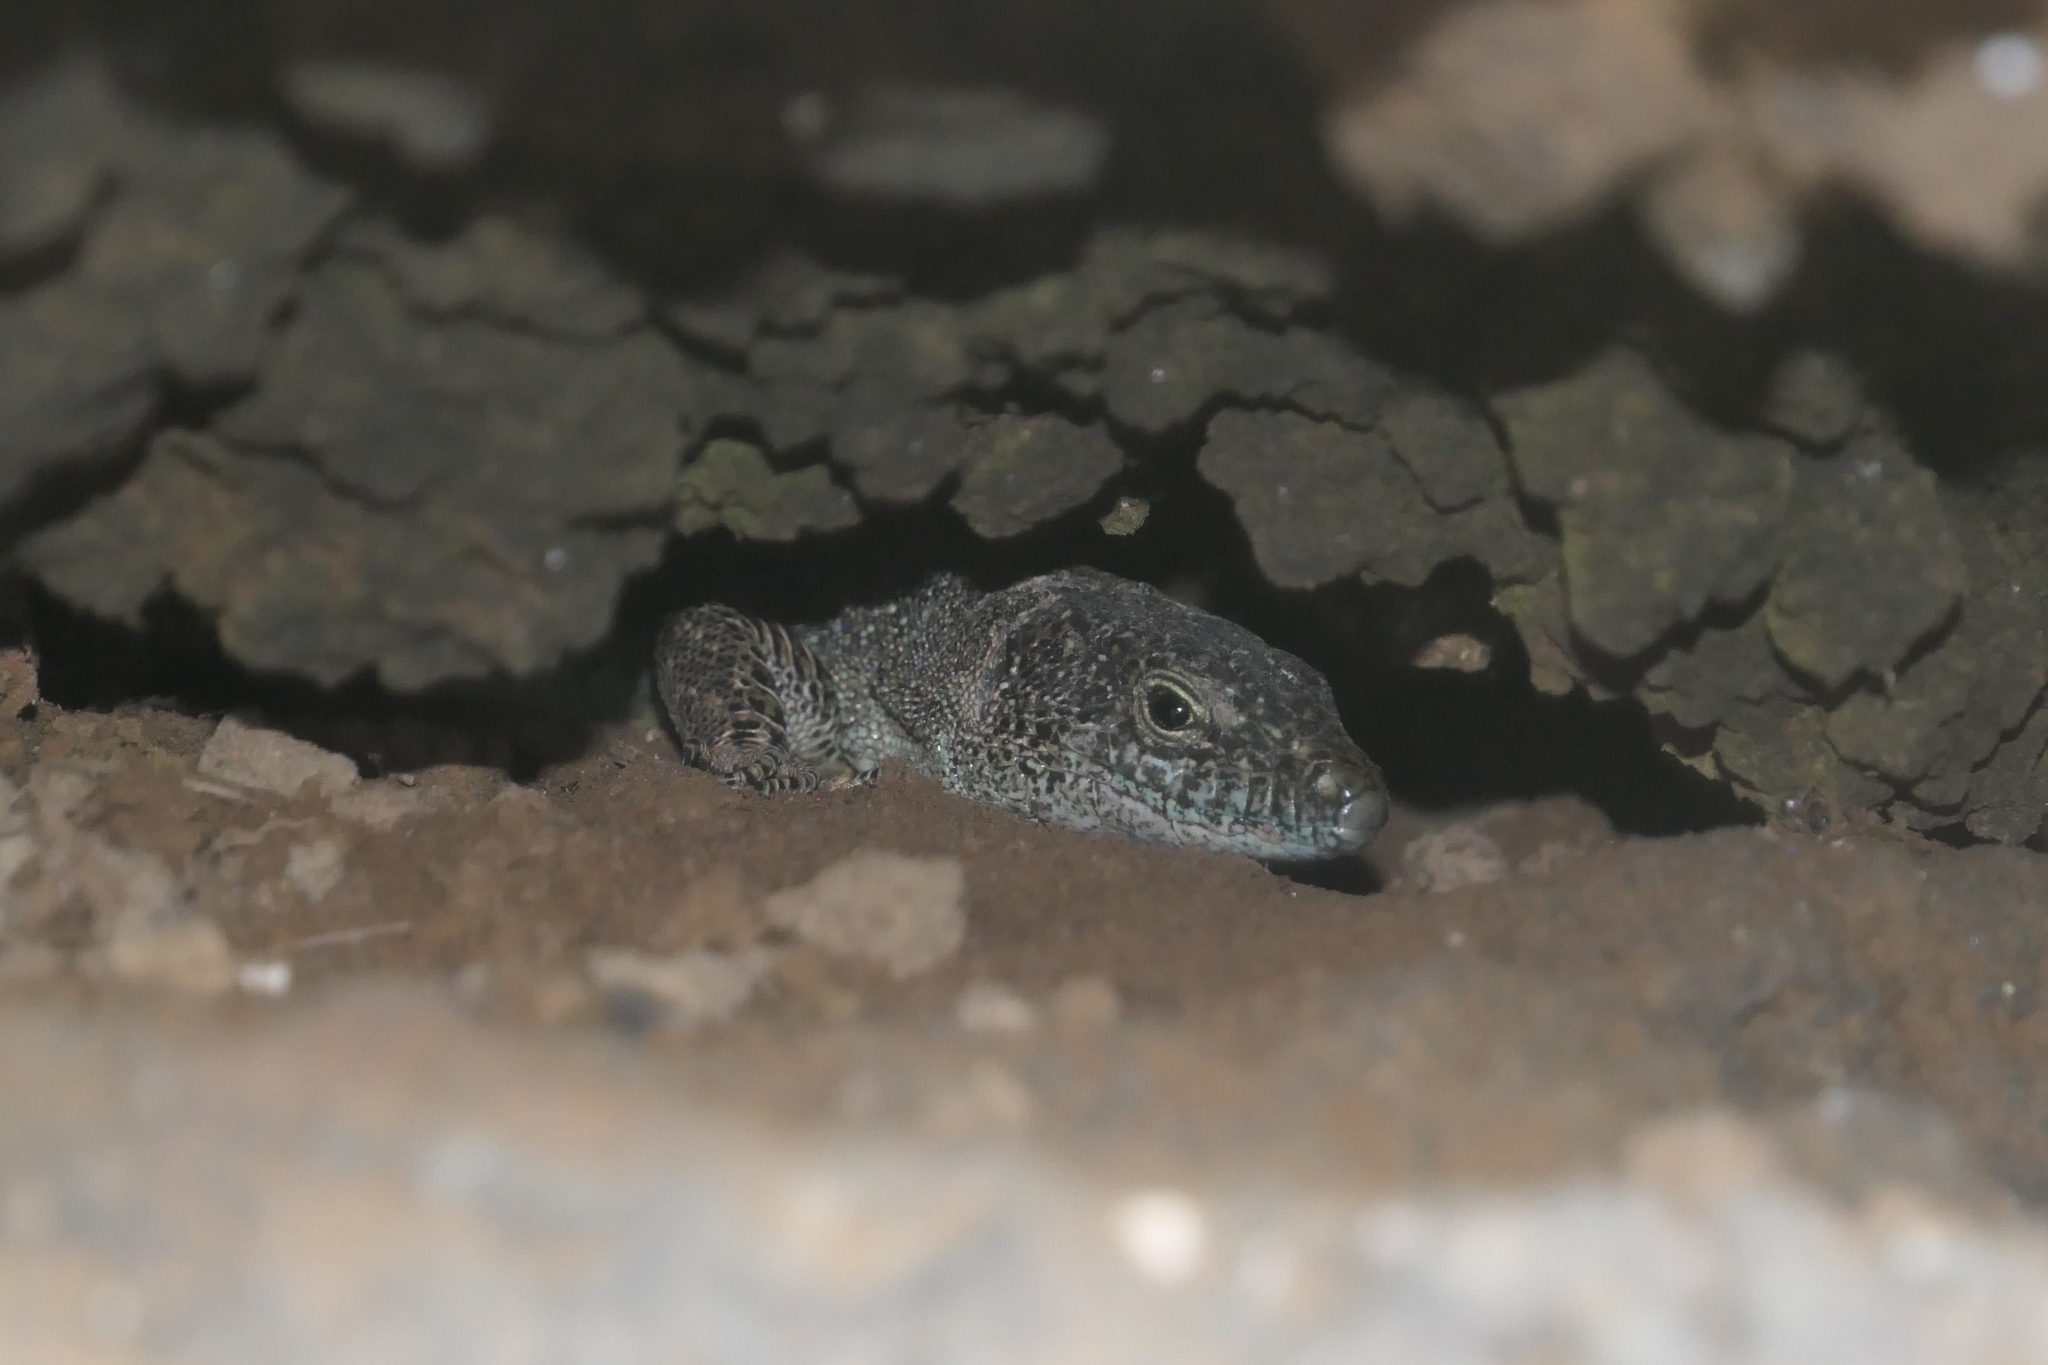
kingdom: Animalia
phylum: Chordata
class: Squamata
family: Lacertidae
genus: Teira
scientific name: Teira dugesii
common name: Madeira lizard
